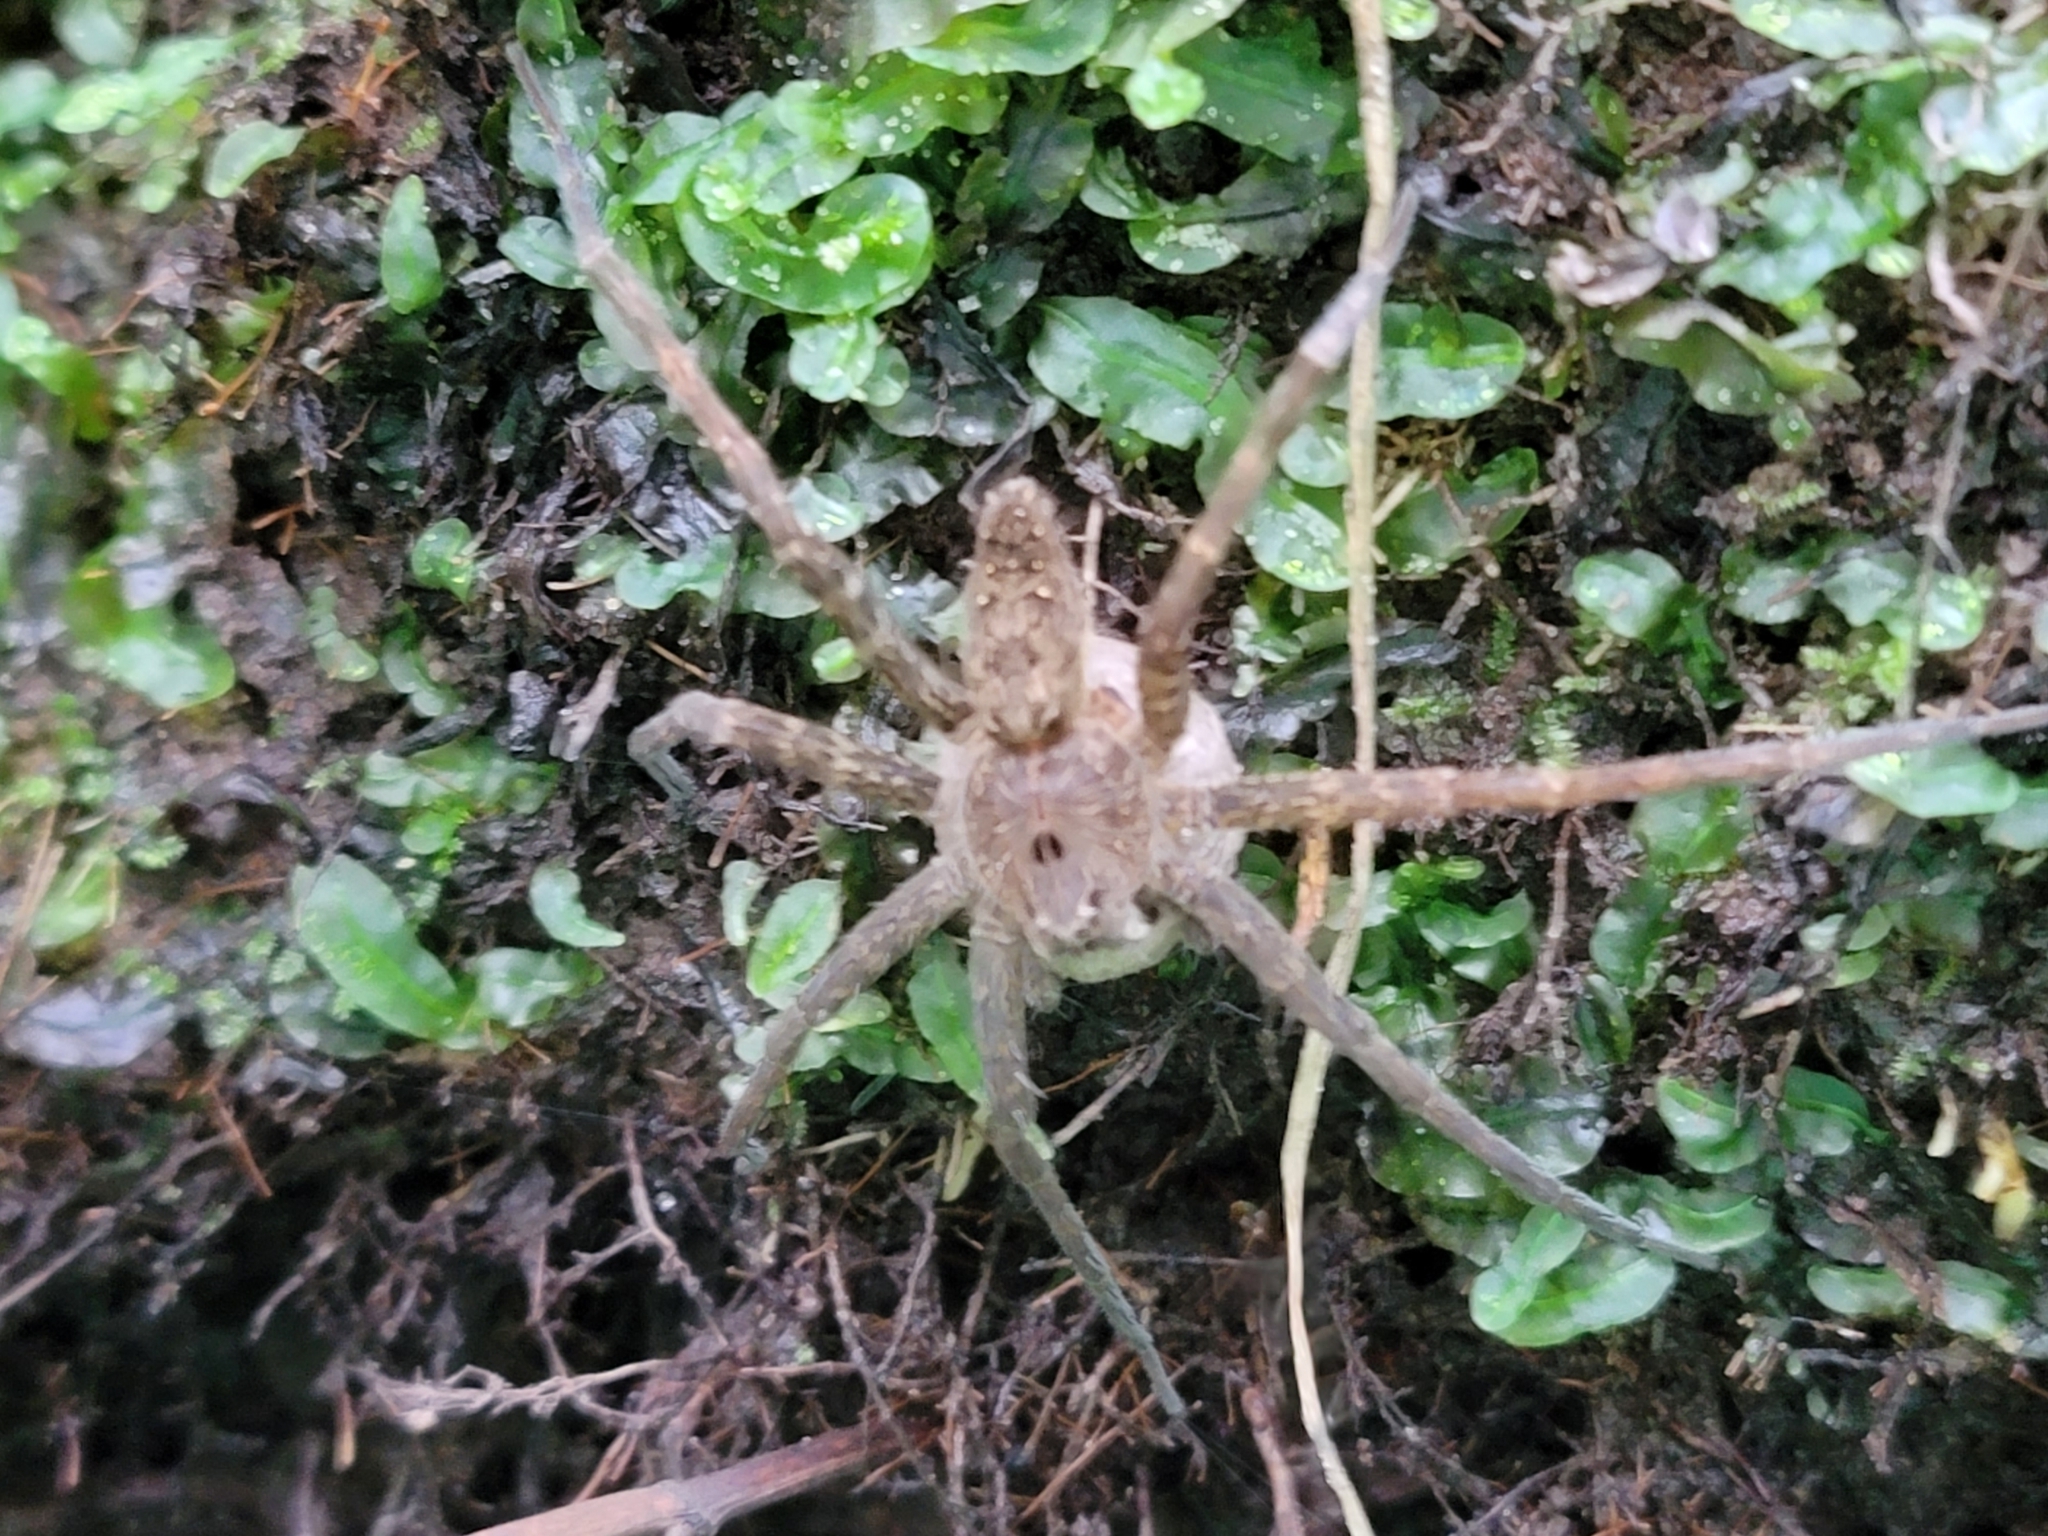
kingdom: Animalia
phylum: Arthropoda
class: Arachnida
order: Araneae
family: Pisauridae
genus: Dolomedes
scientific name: Dolomedes vittatus
